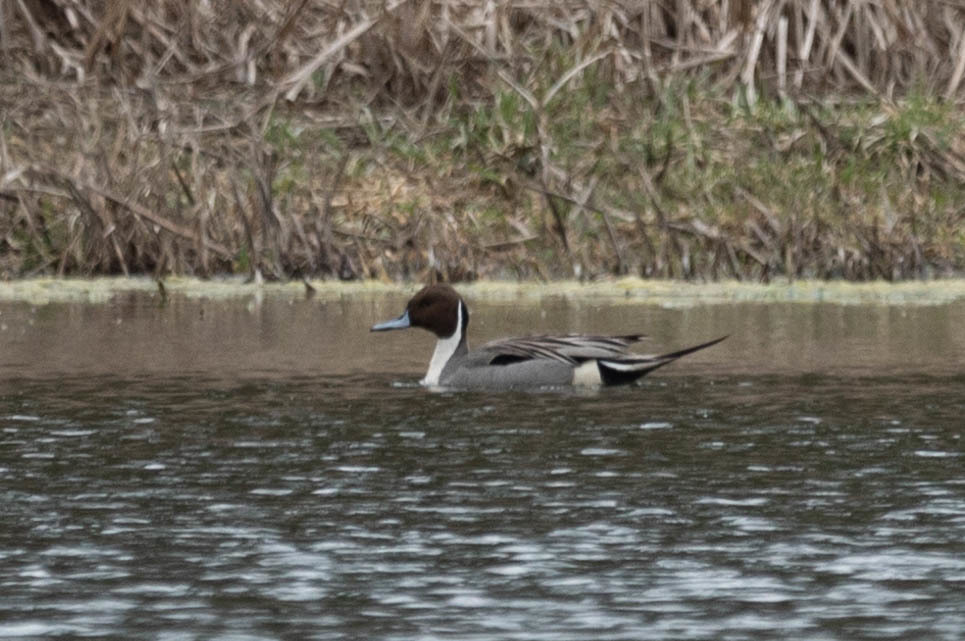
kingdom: Animalia
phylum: Chordata
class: Aves
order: Anseriformes
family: Anatidae
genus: Anas
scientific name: Anas acuta
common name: Northern pintail
